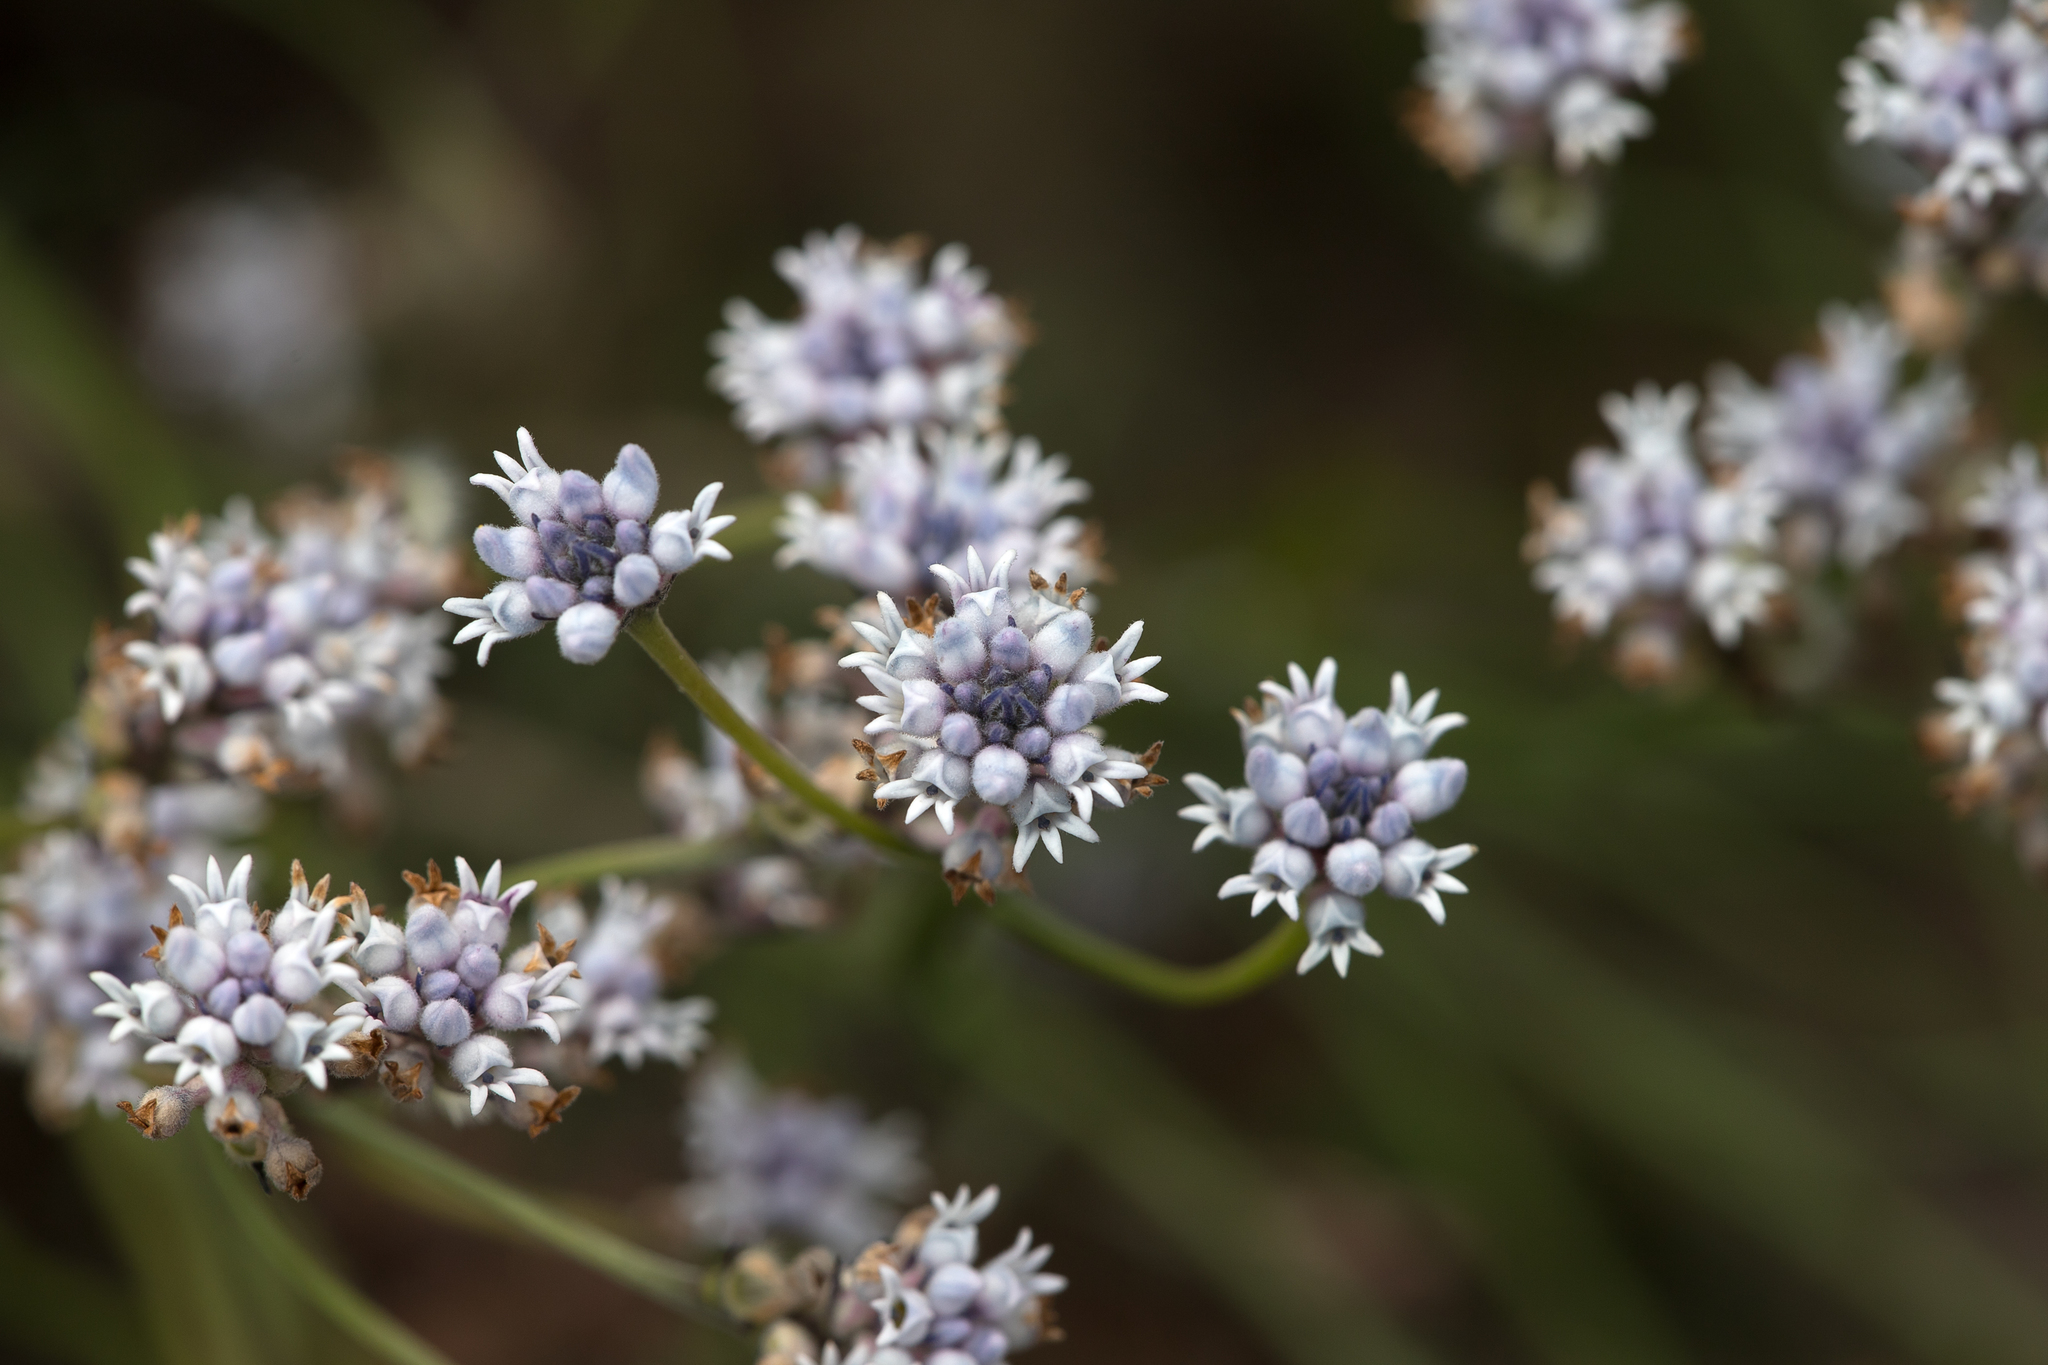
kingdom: Plantae
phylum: Tracheophyta
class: Magnoliopsida
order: Proteales
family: Proteaceae
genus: Conospermum
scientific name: Conospermum patens
